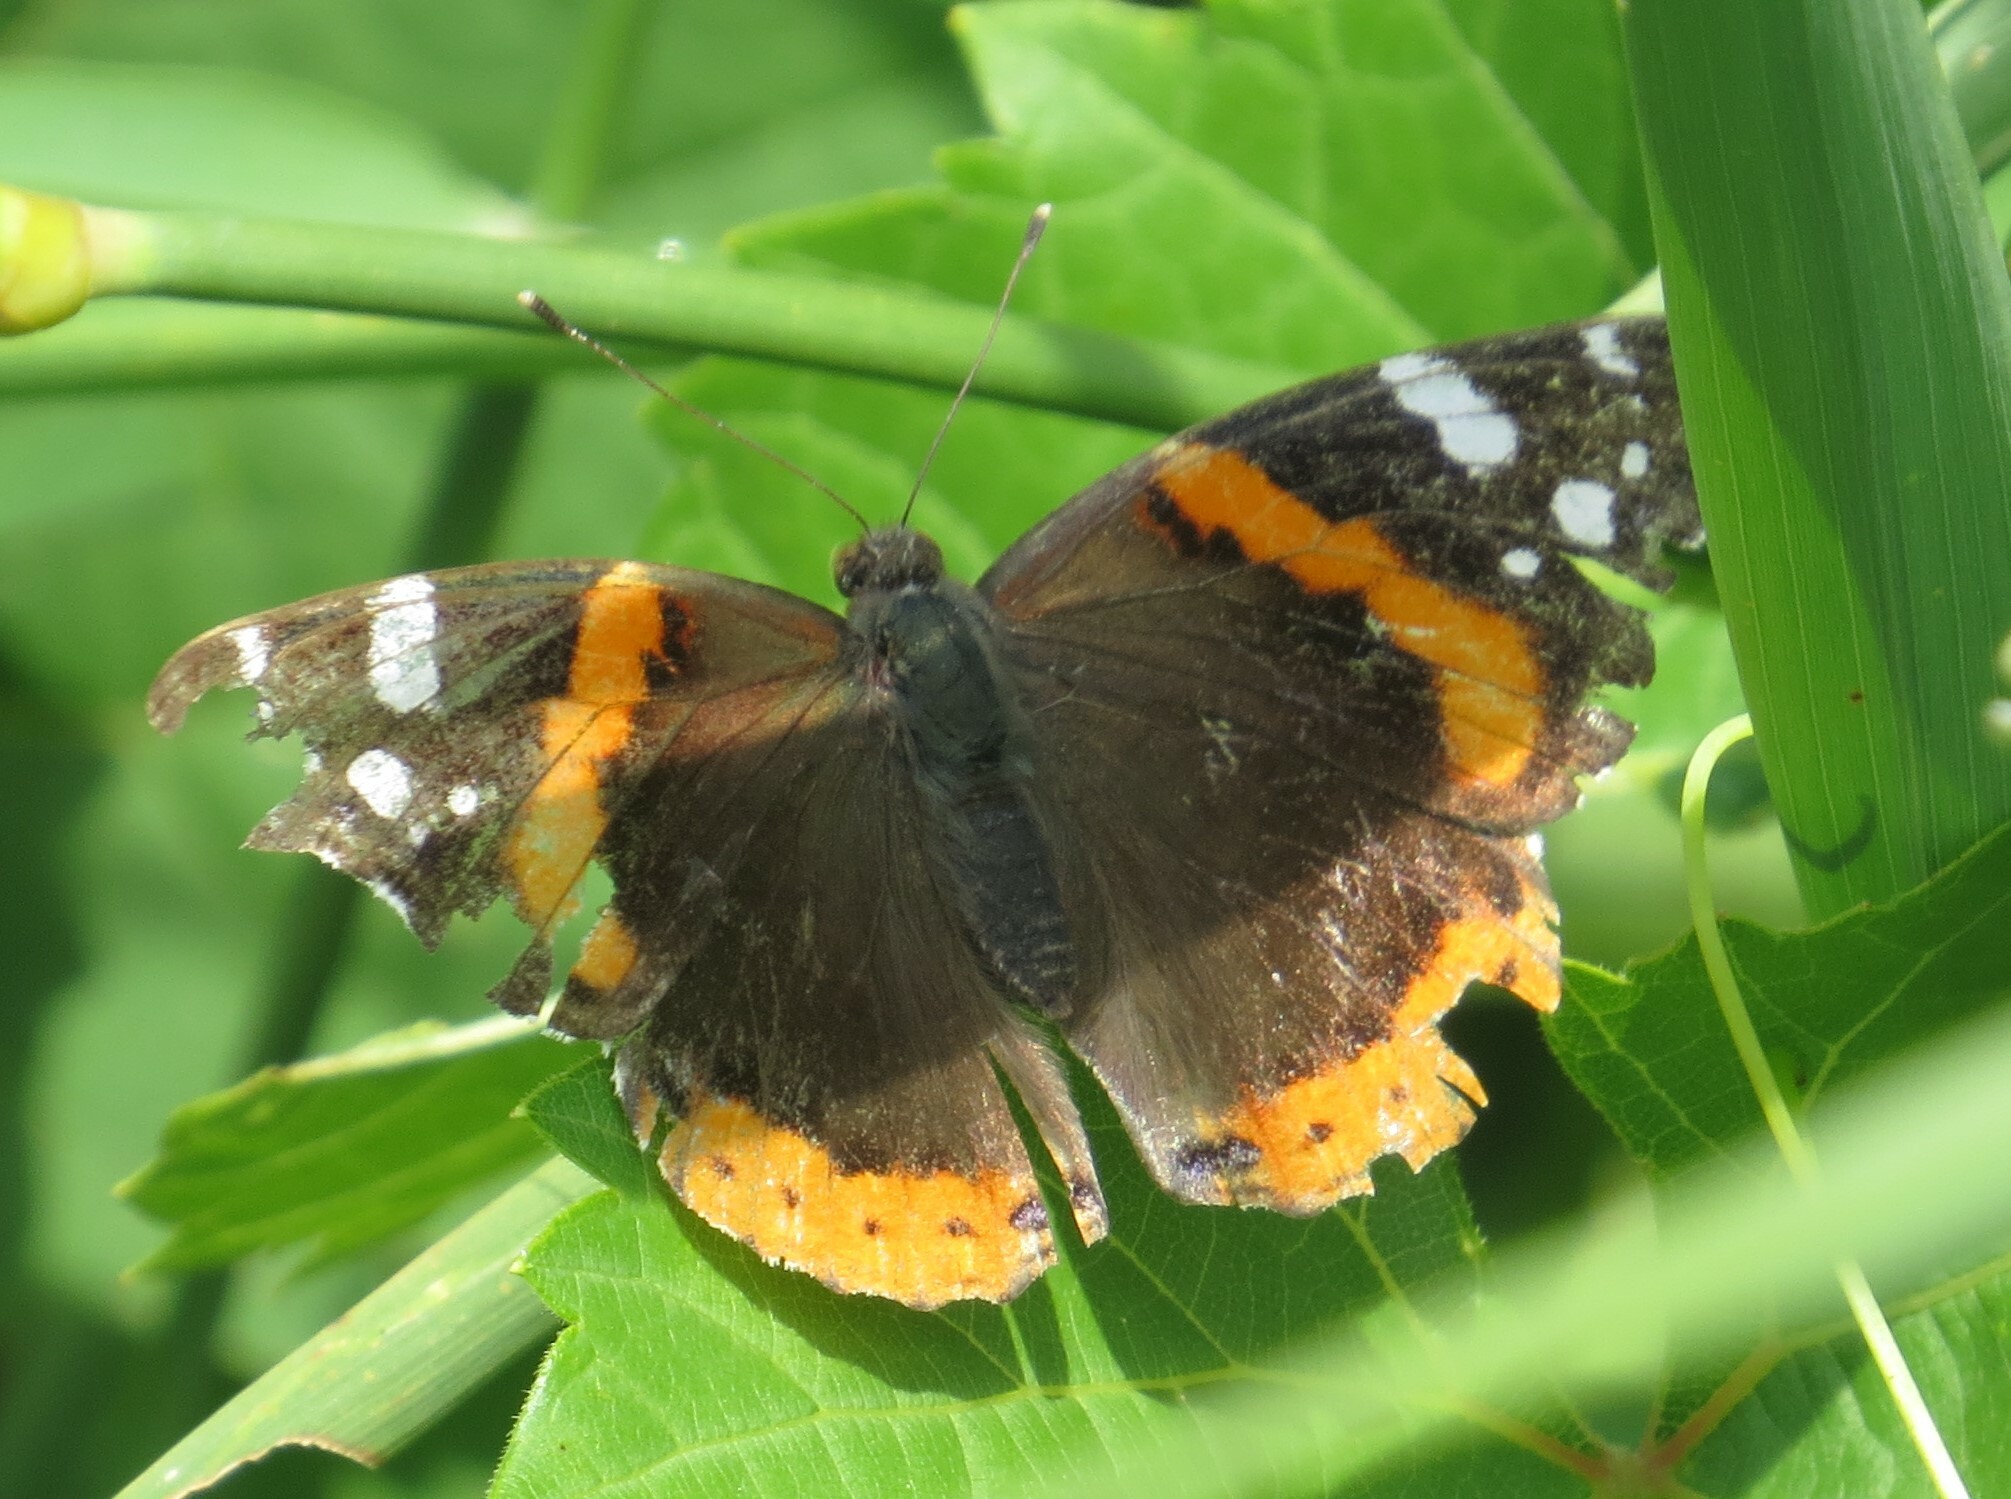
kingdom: Animalia
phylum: Arthropoda
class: Insecta
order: Lepidoptera
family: Nymphalidae
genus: Vanessa
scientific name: Vanessa atalanta
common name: Red admiral
